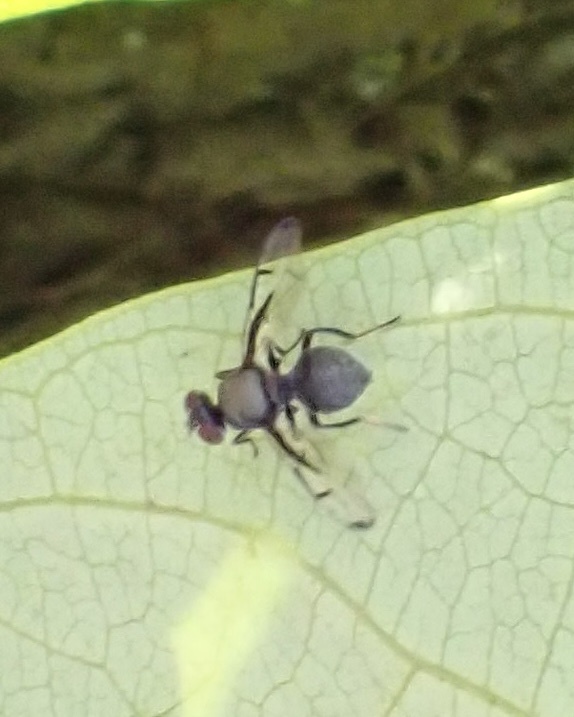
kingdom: Animalia
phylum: Arthropoda
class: Insecta
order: Diptera
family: Platystomatidae
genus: Pogonortalis
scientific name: Pogonortalis doclea
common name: Boatman fly
